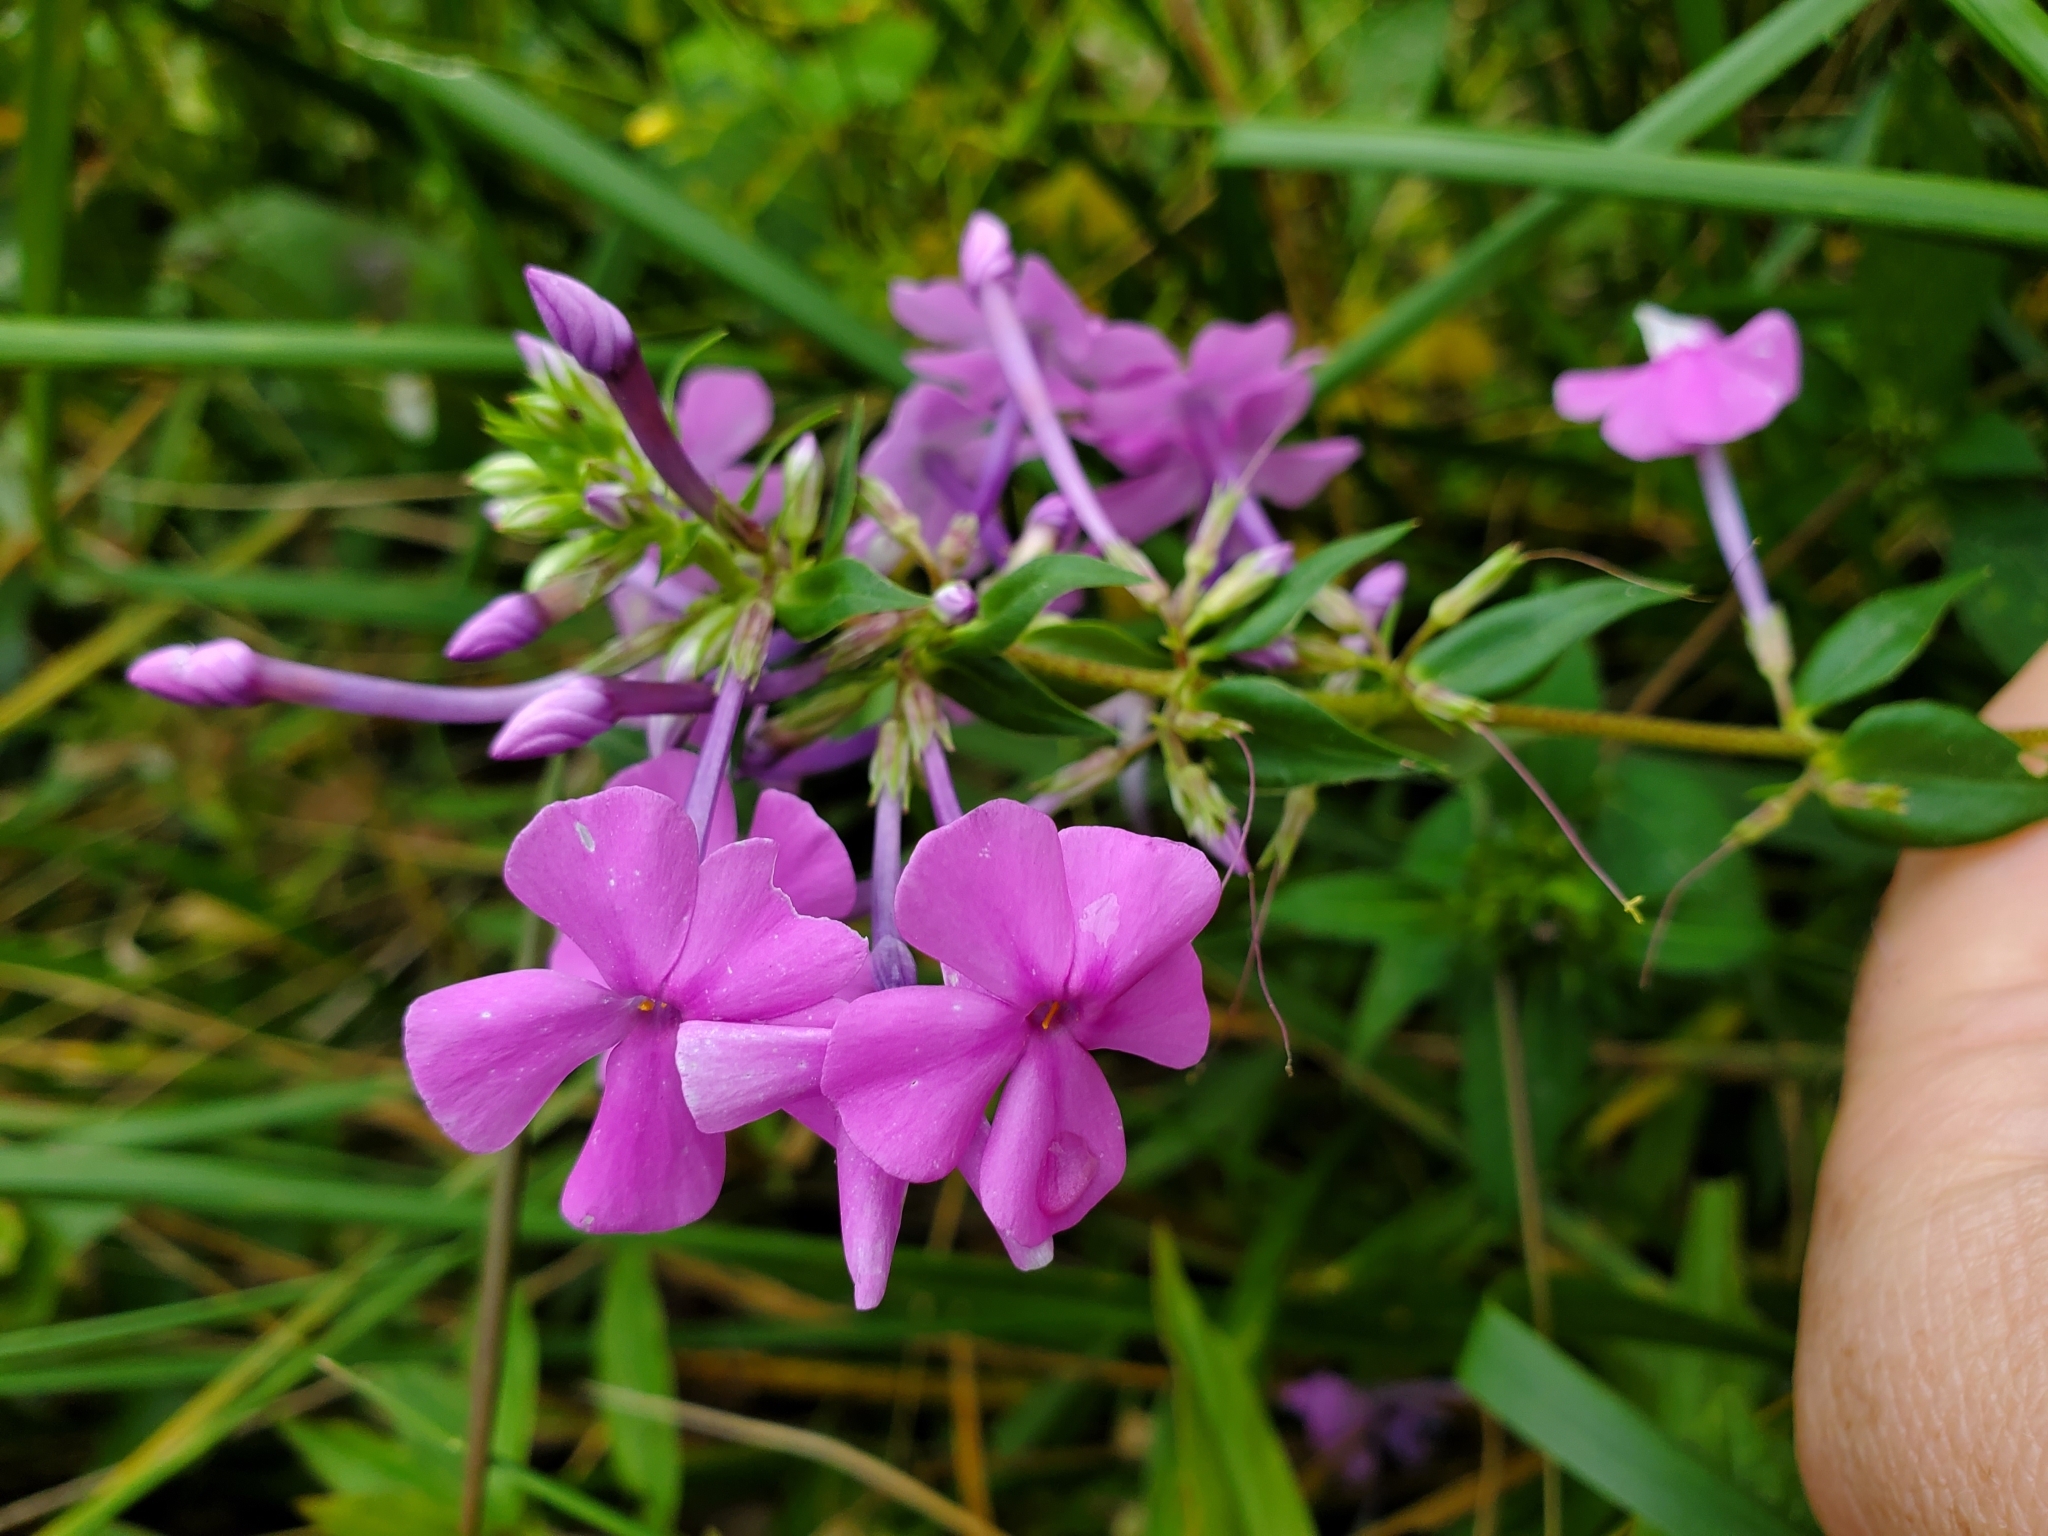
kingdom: Plantae
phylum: Tracheophyta
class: Magnoliopsida
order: Ericales
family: Polemoniaceae
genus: Phlox
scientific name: Phlox maculata
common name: Meadow phlox
